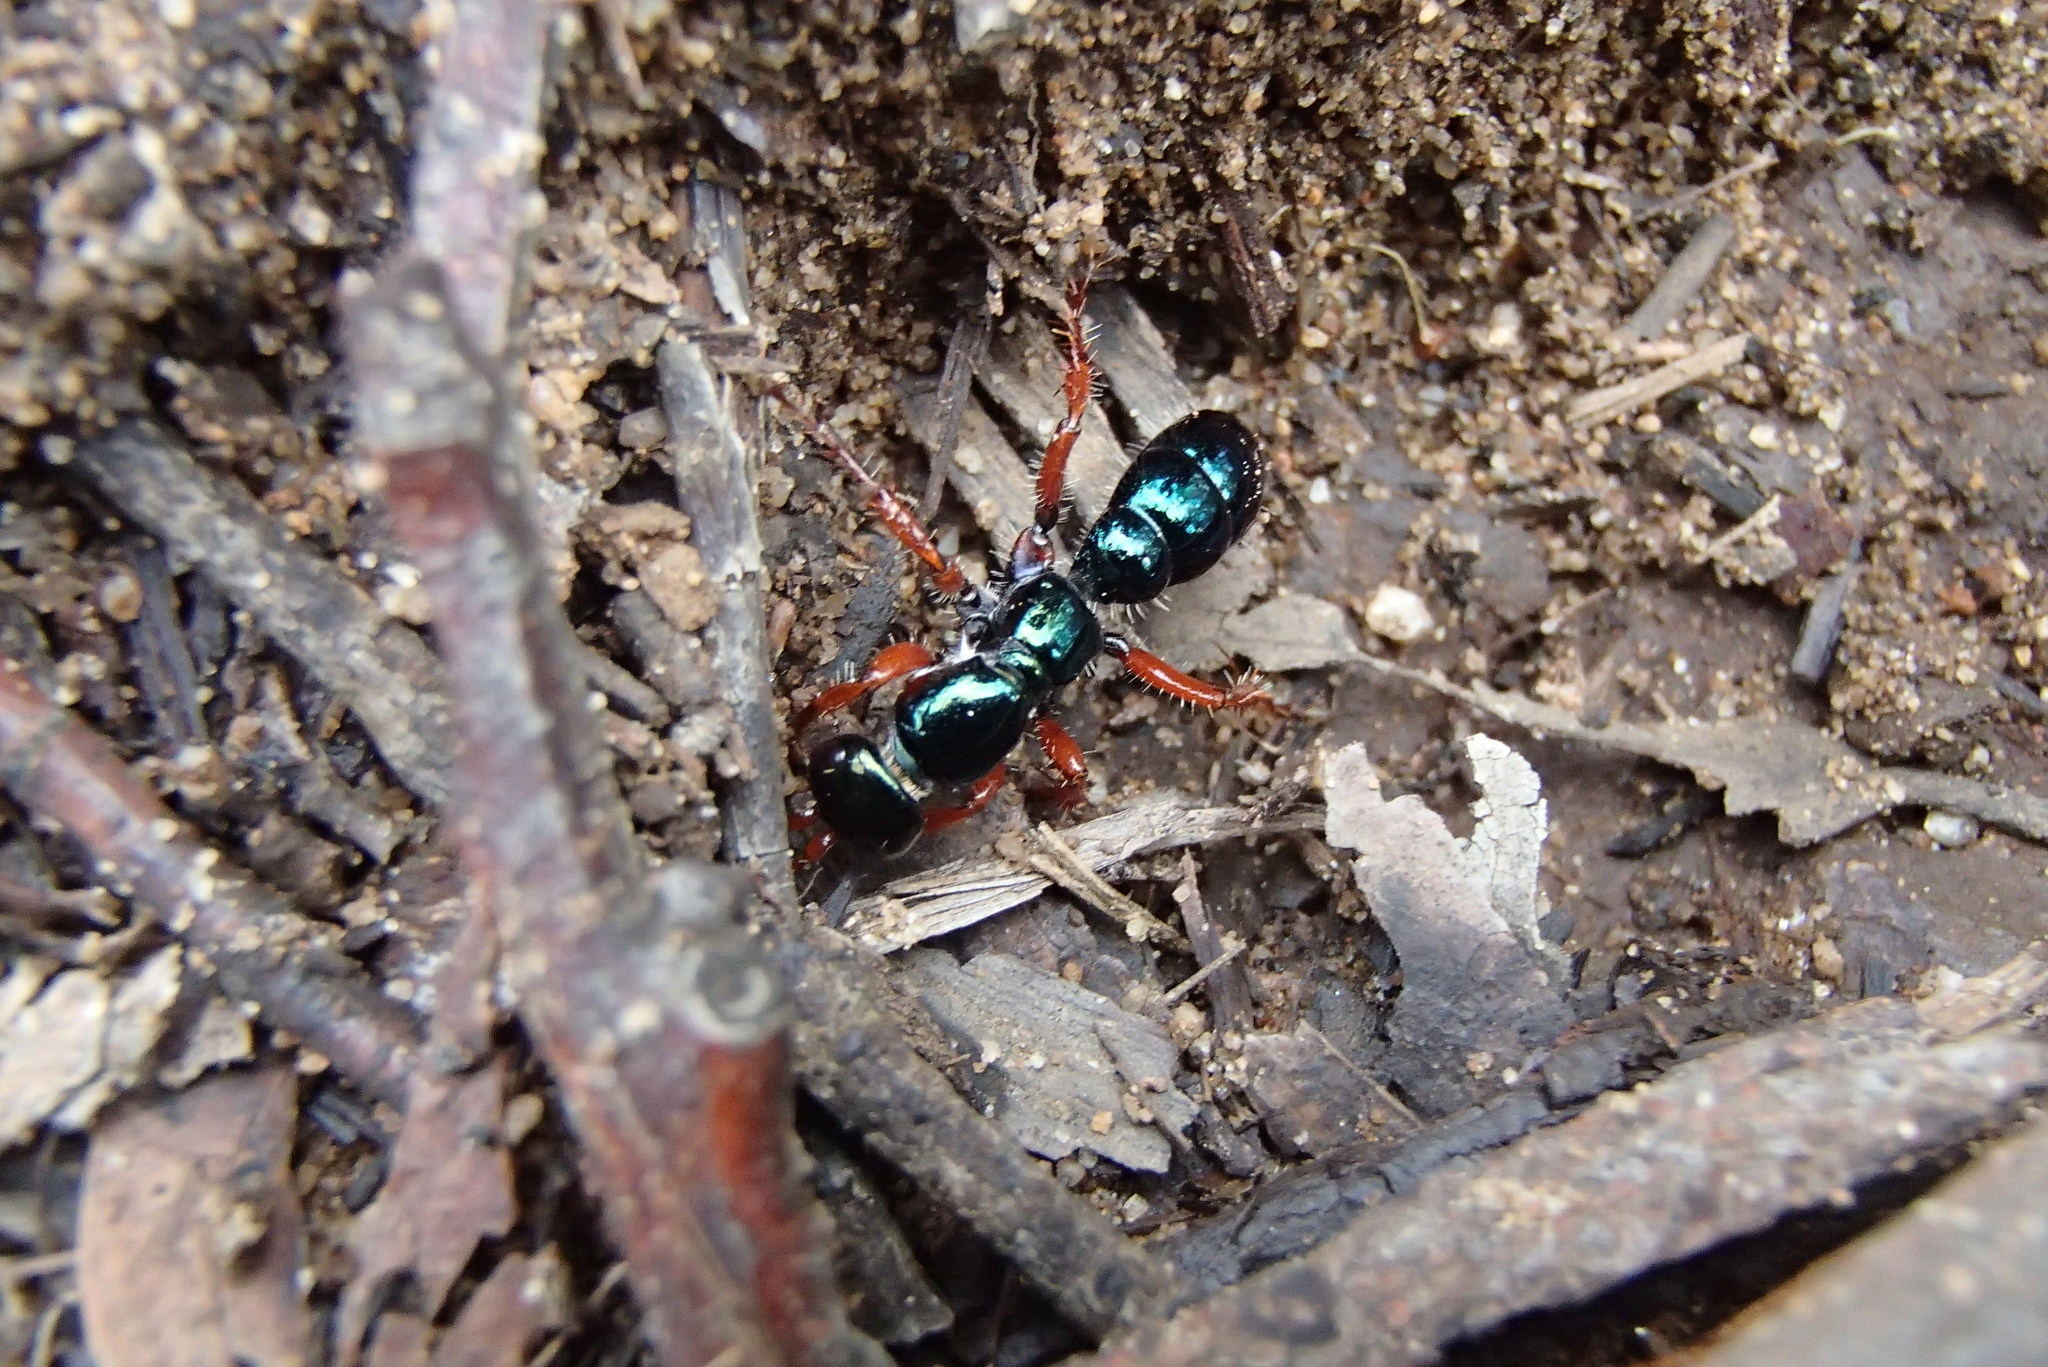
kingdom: Animalia
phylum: Arthropoda
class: Insecta
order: Hymenoptera
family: Tiphiidae
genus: Diamma
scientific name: Diamma
